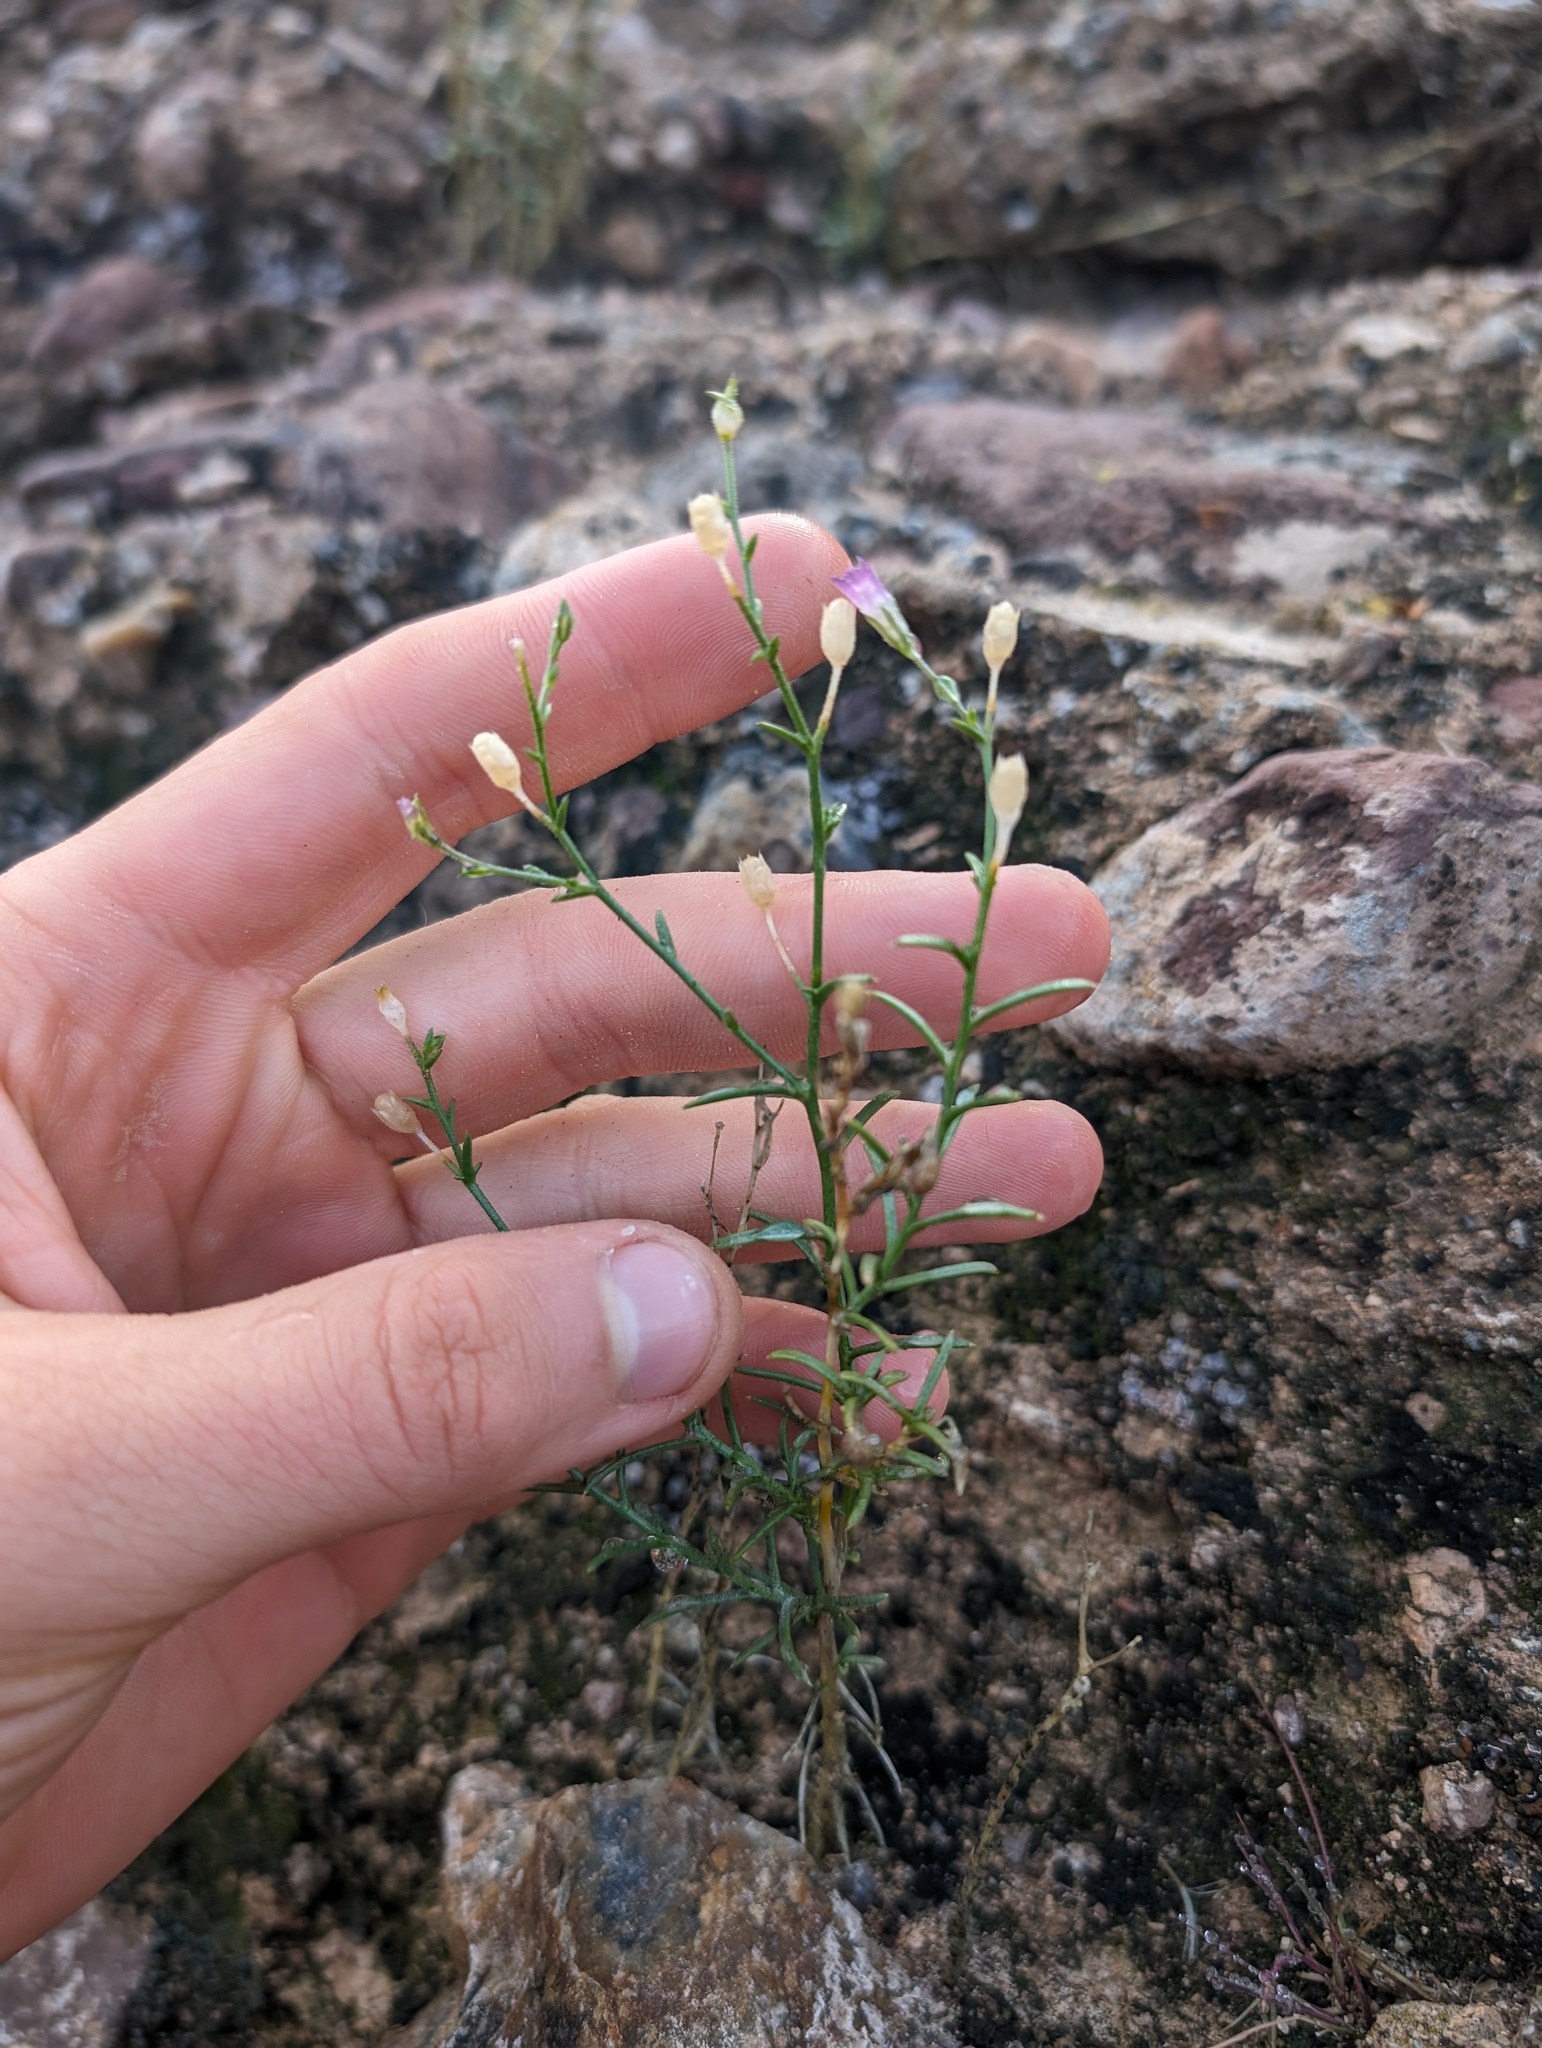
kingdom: Plantae
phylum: Tracheophyta
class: Magnoliopsida
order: Ericales
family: Polemoniaceae
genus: Bryantiella
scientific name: Bryantiella palmeri
